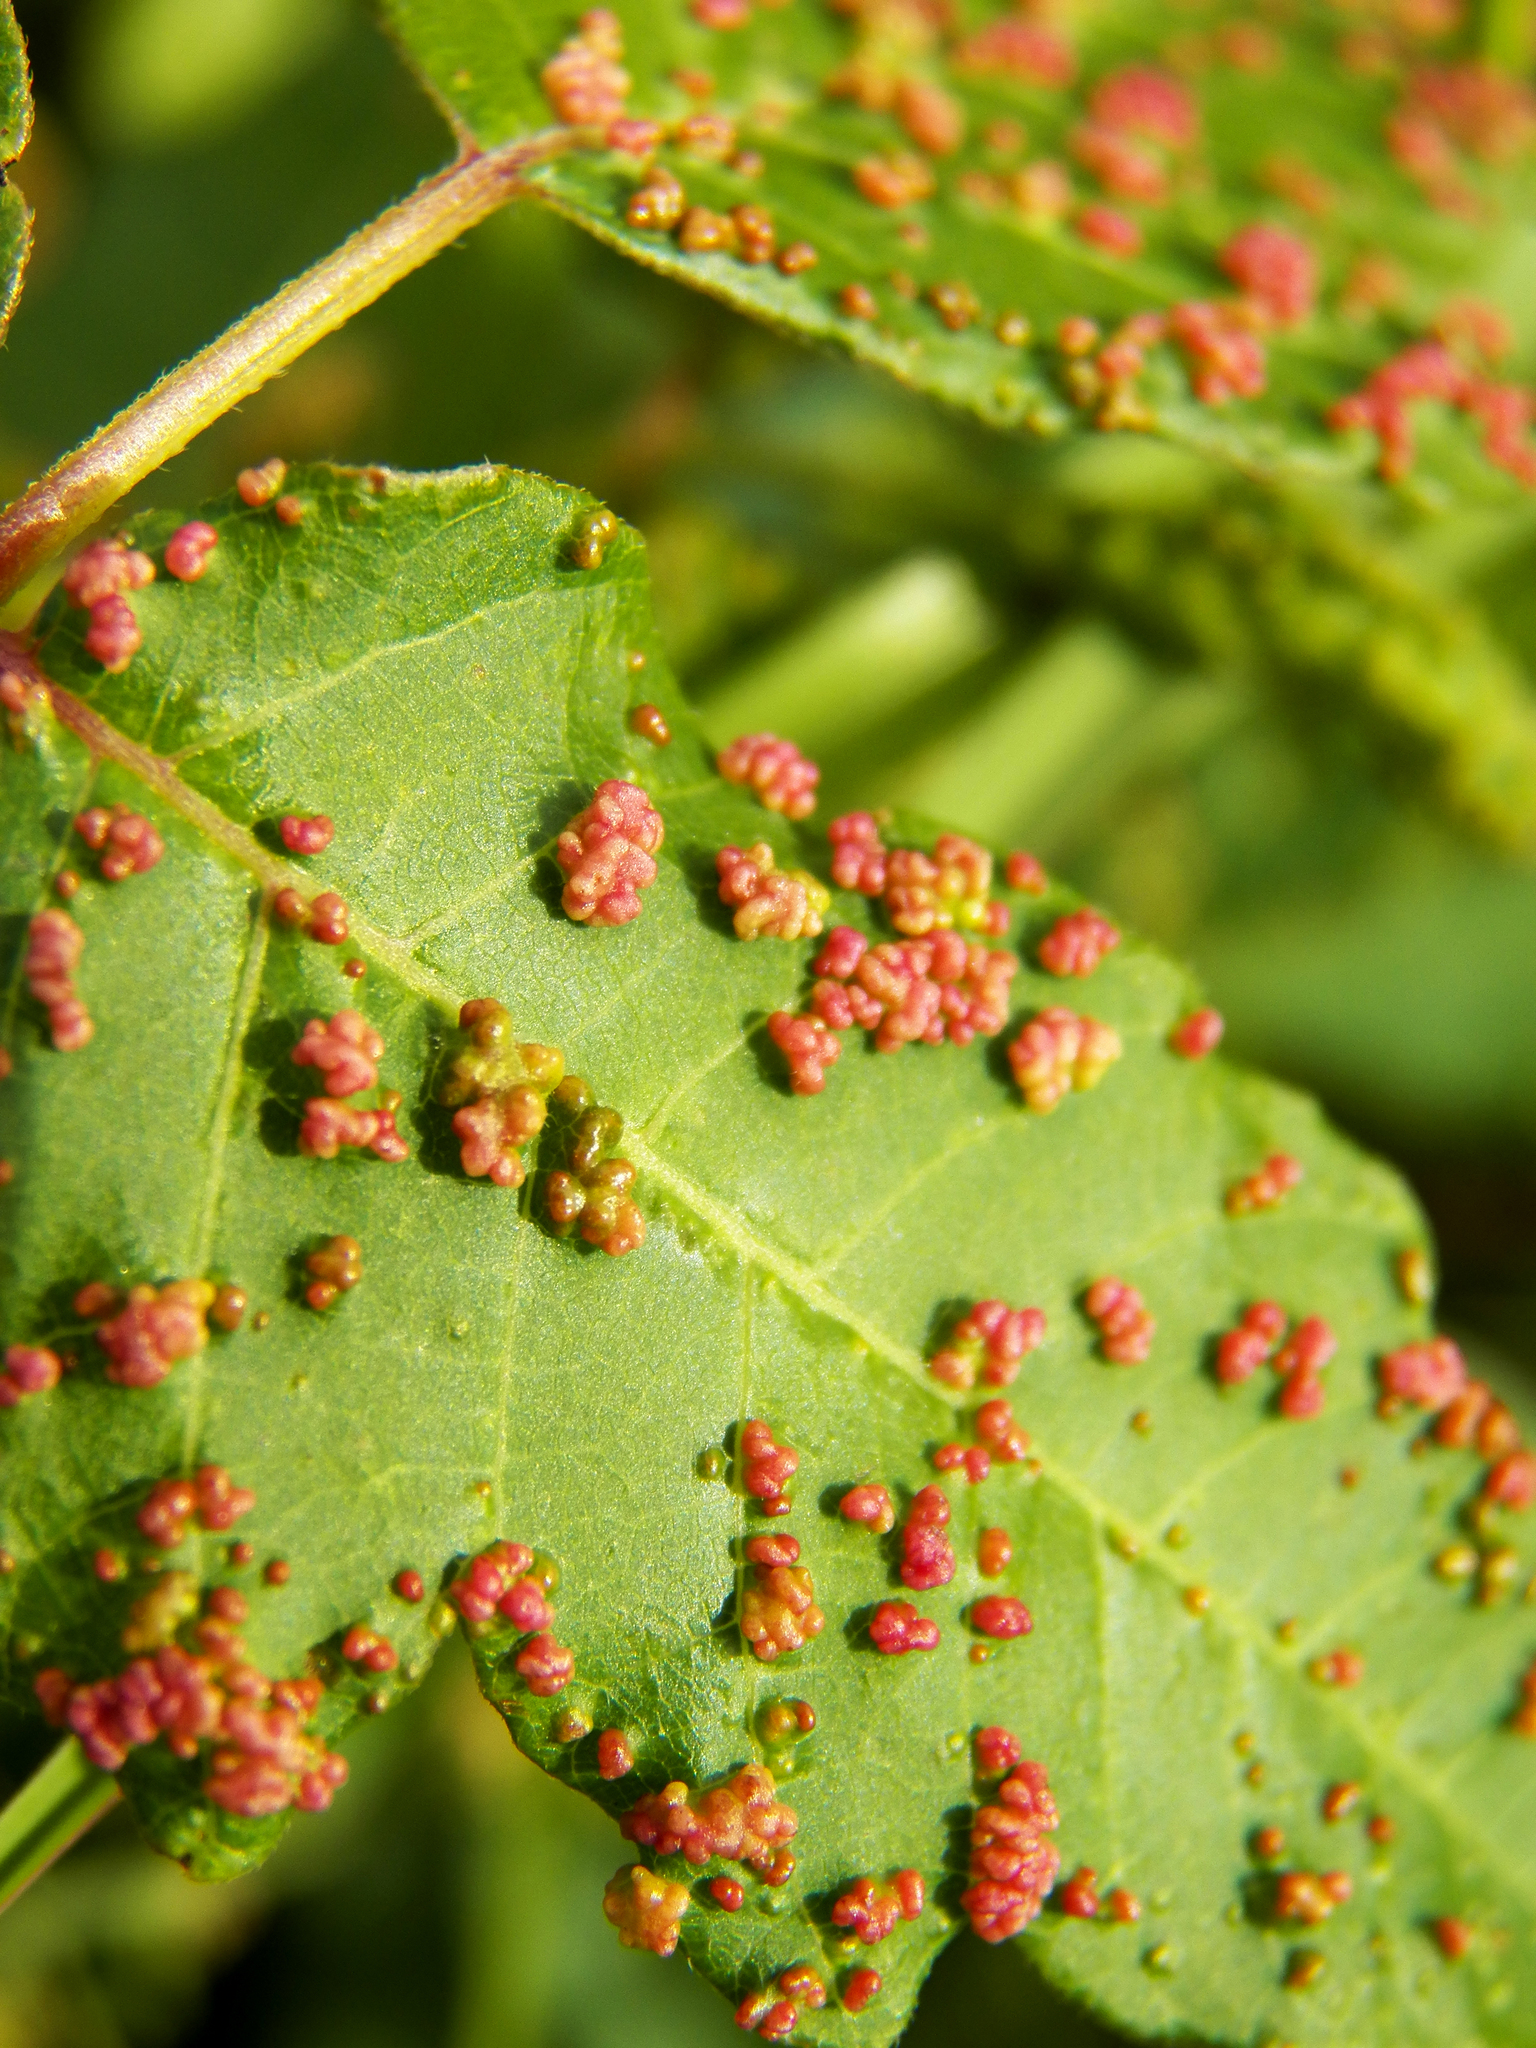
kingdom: Animalia
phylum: Arthropoda
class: Arachnida
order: Trombidiformes
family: Eriophyidae
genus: Aculops
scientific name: Aculops
